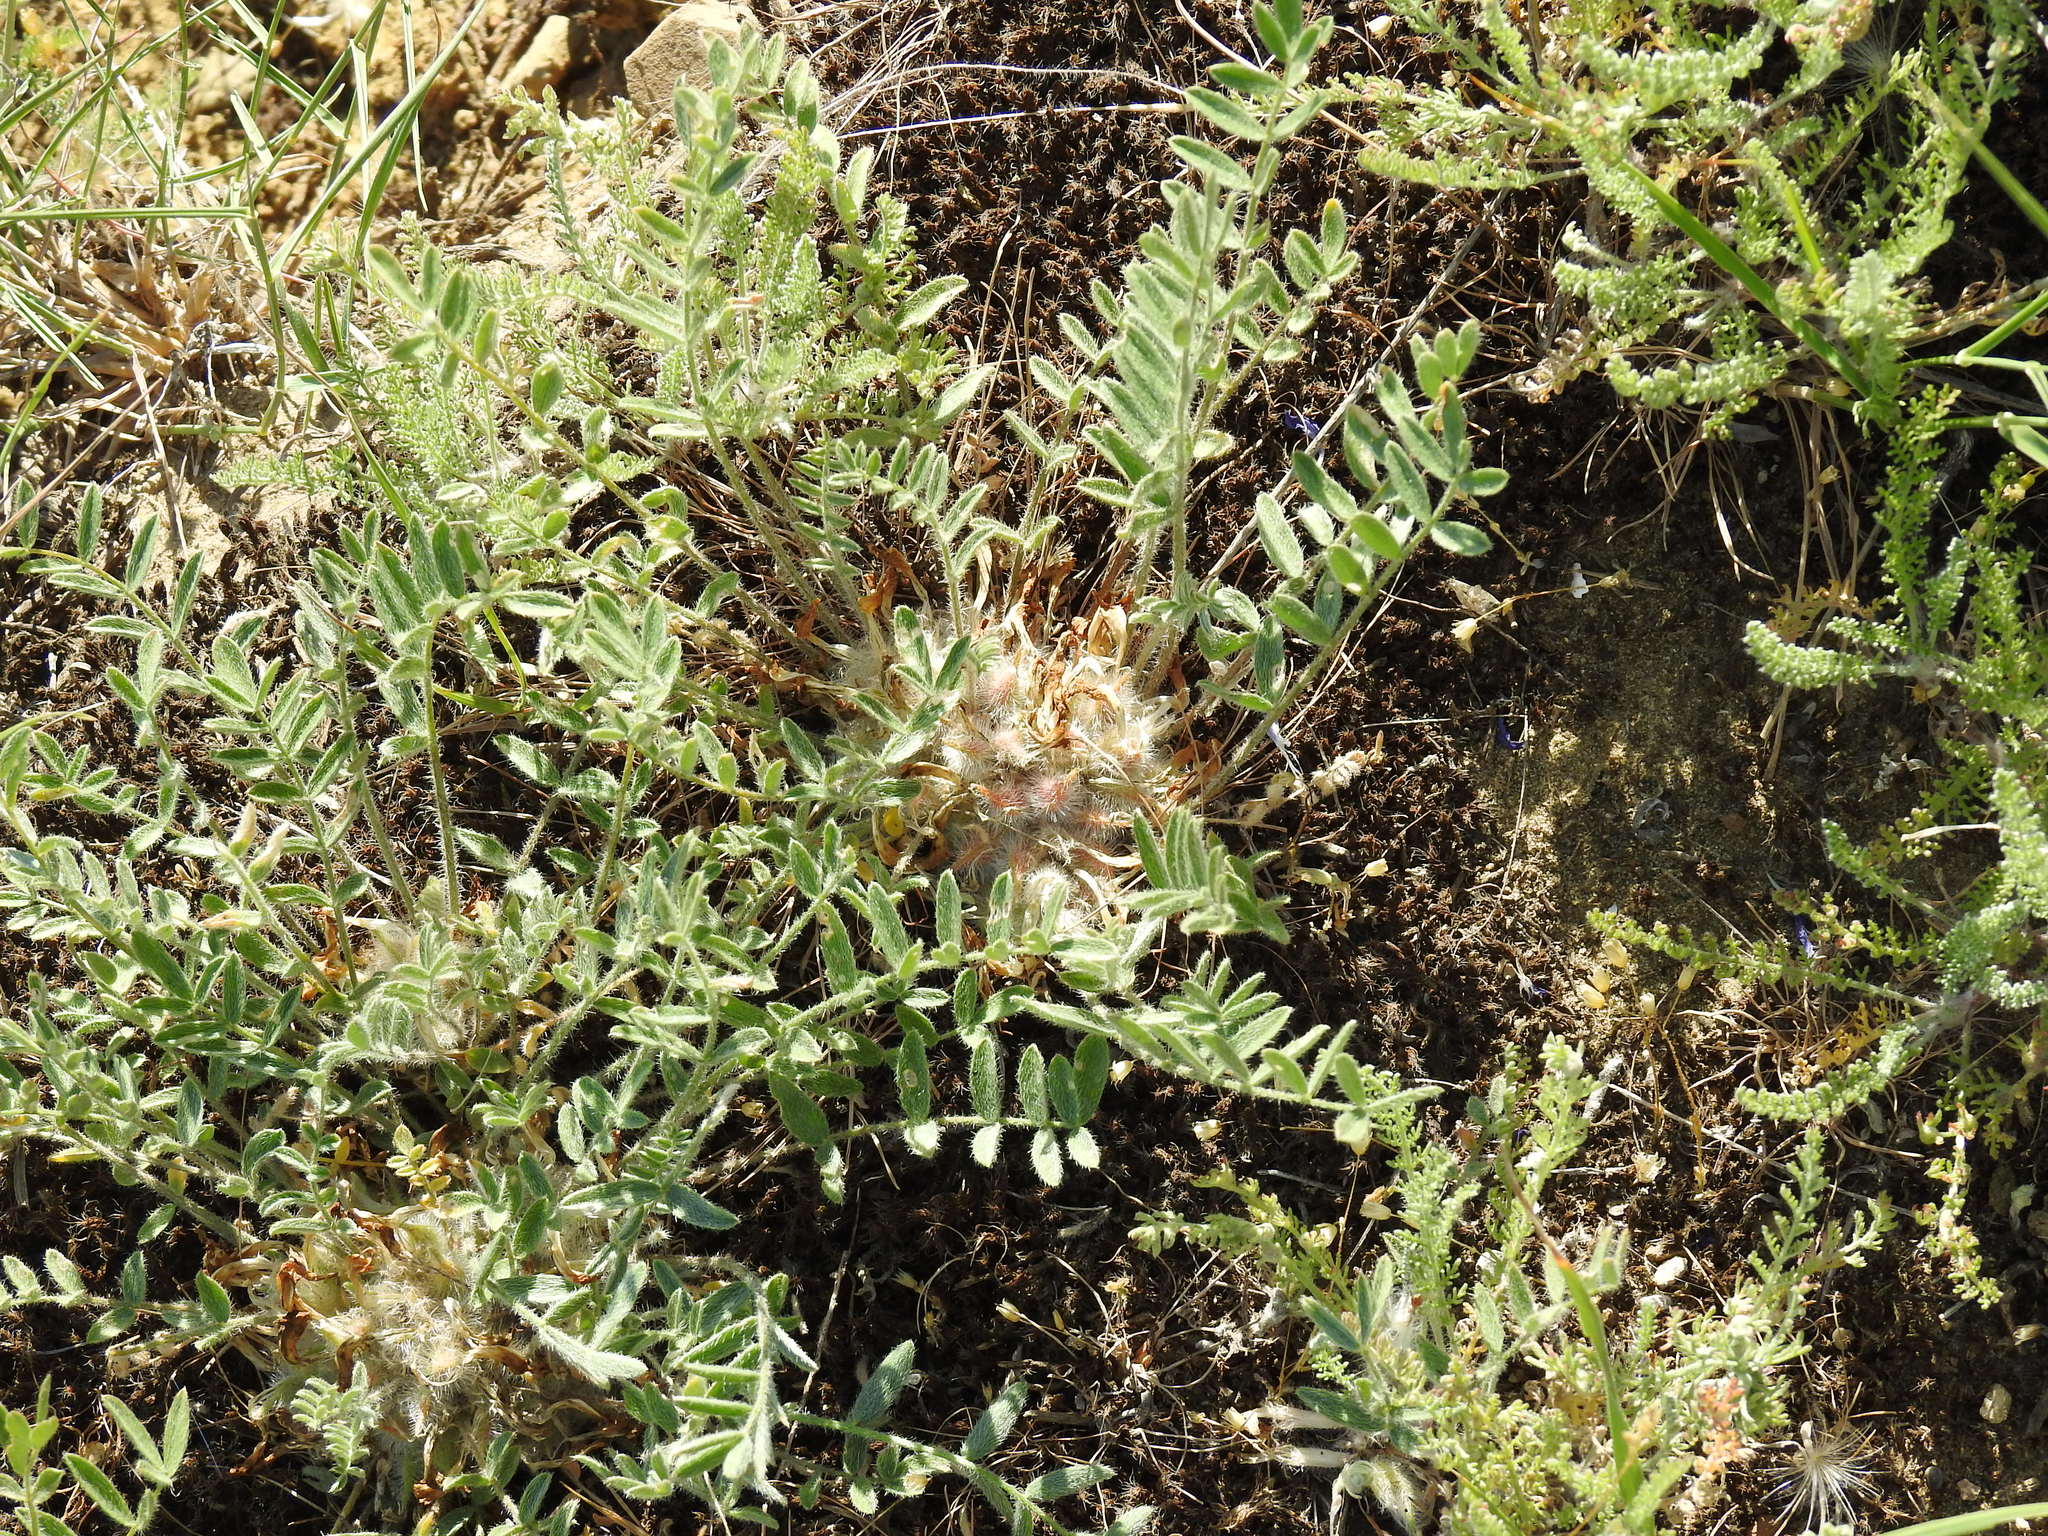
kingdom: Plantae
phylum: Tracheophyta
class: Magnoliopsida
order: Fabales
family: Fabaceae
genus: Astragalus
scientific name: Astragalus dolichophyllus
